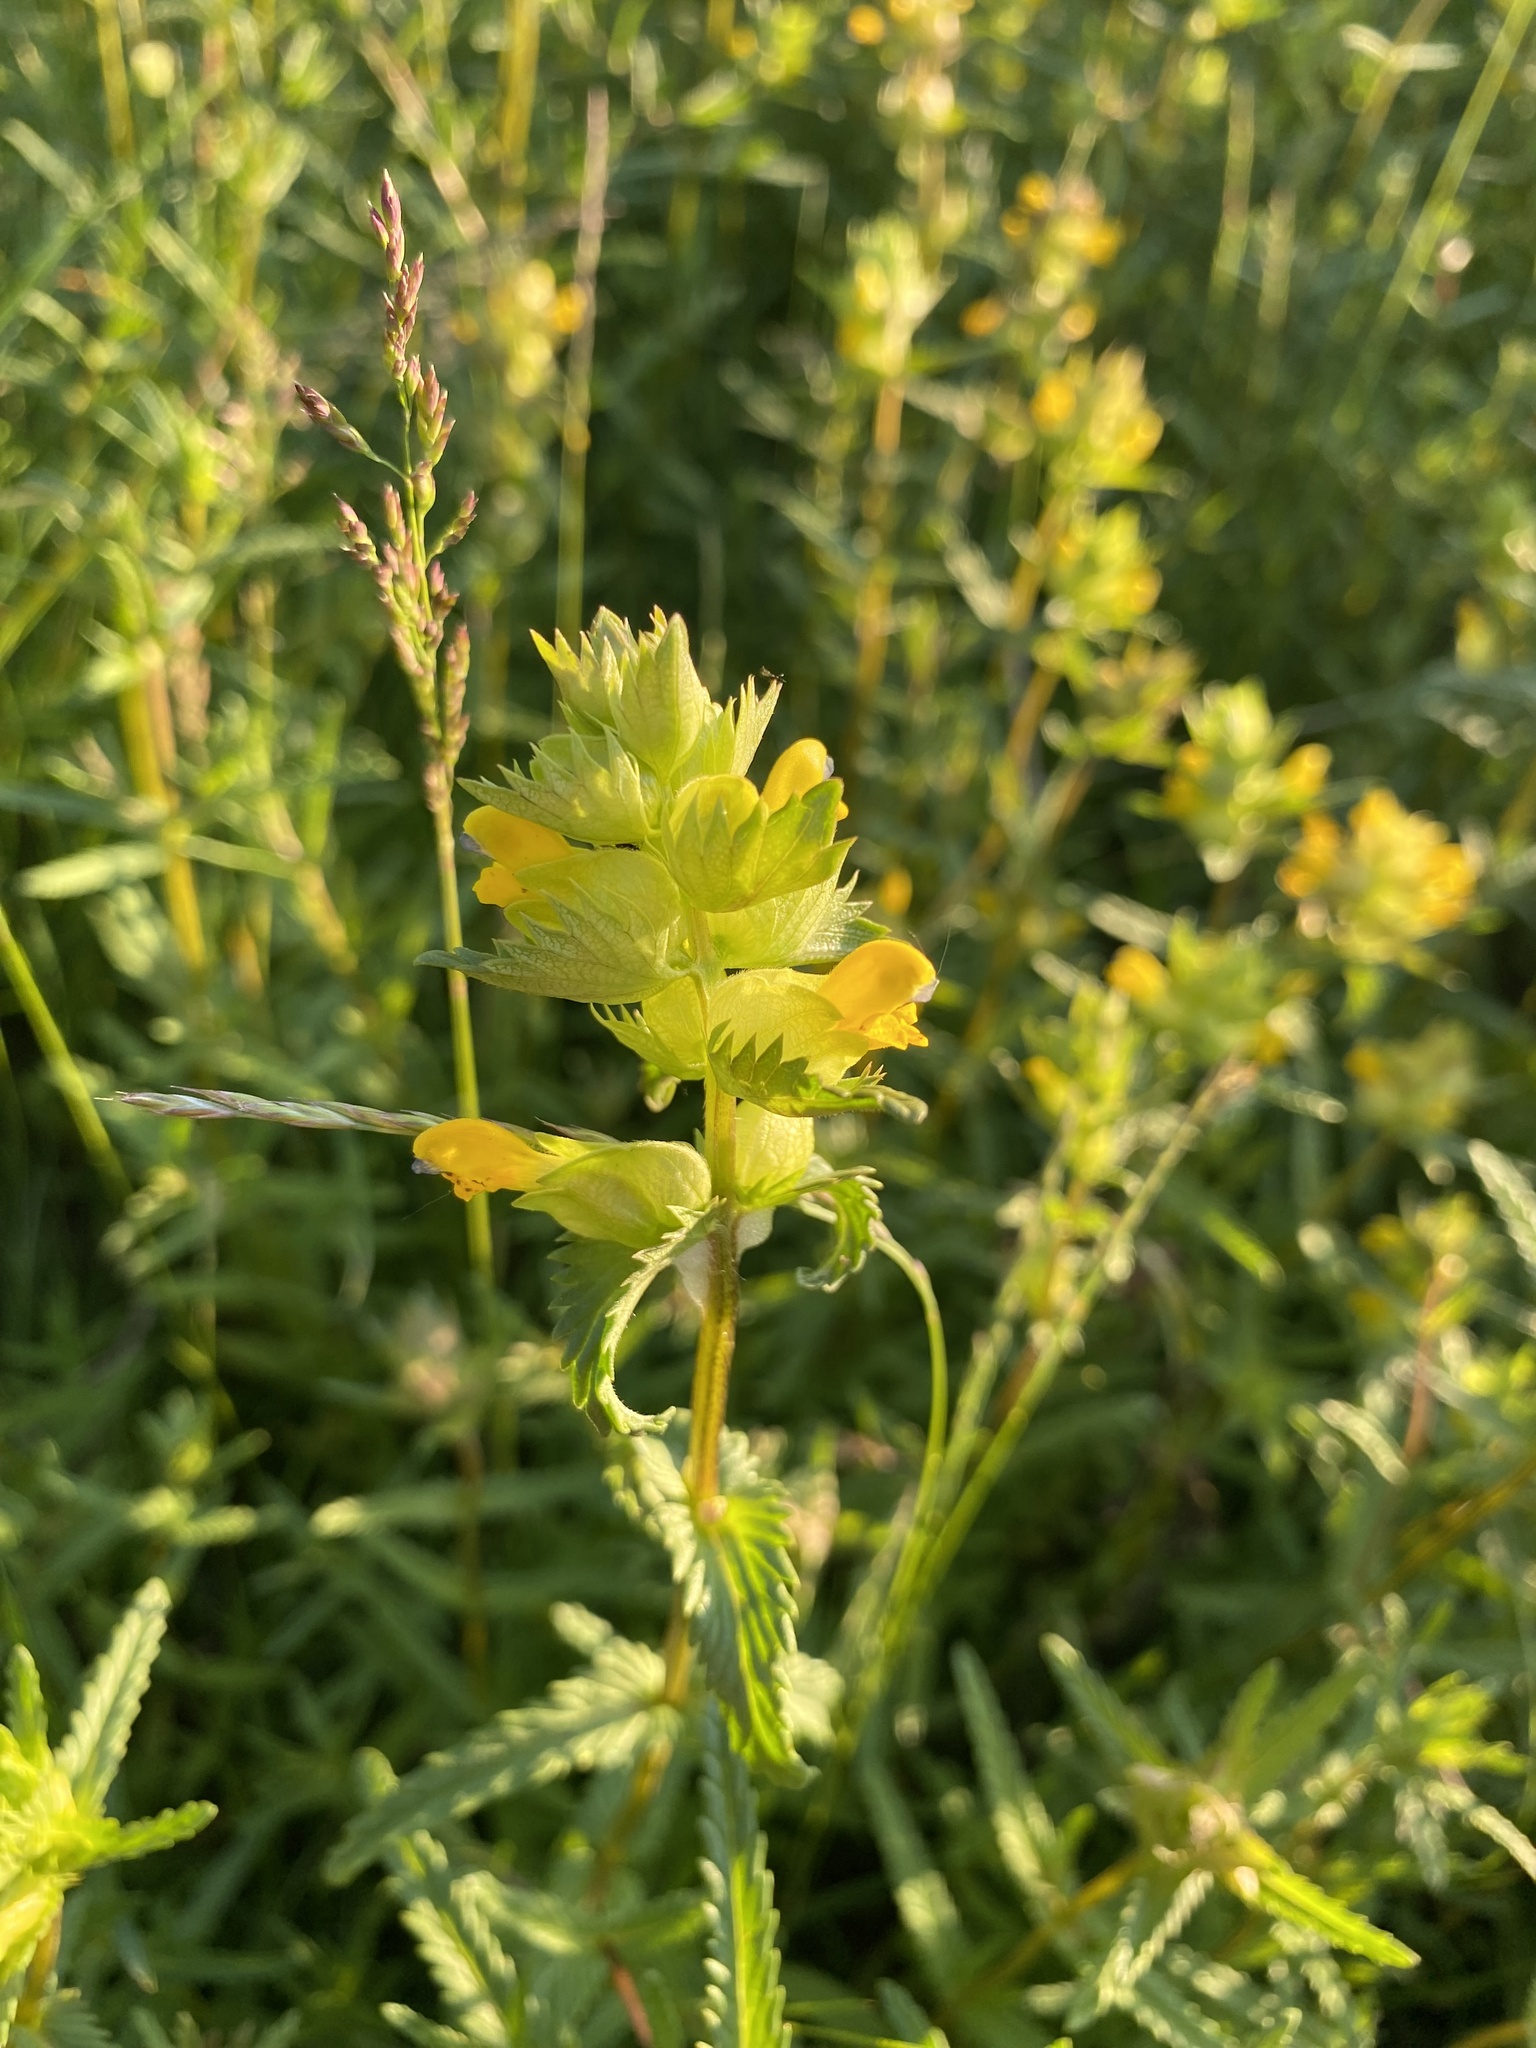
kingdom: Plantae
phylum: Tracheophyta
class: Magnoliopsida
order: Lamiales
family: Orobanchaceae
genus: Rhinanthus
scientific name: Rhinanthus minor
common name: Yellow-rattle
